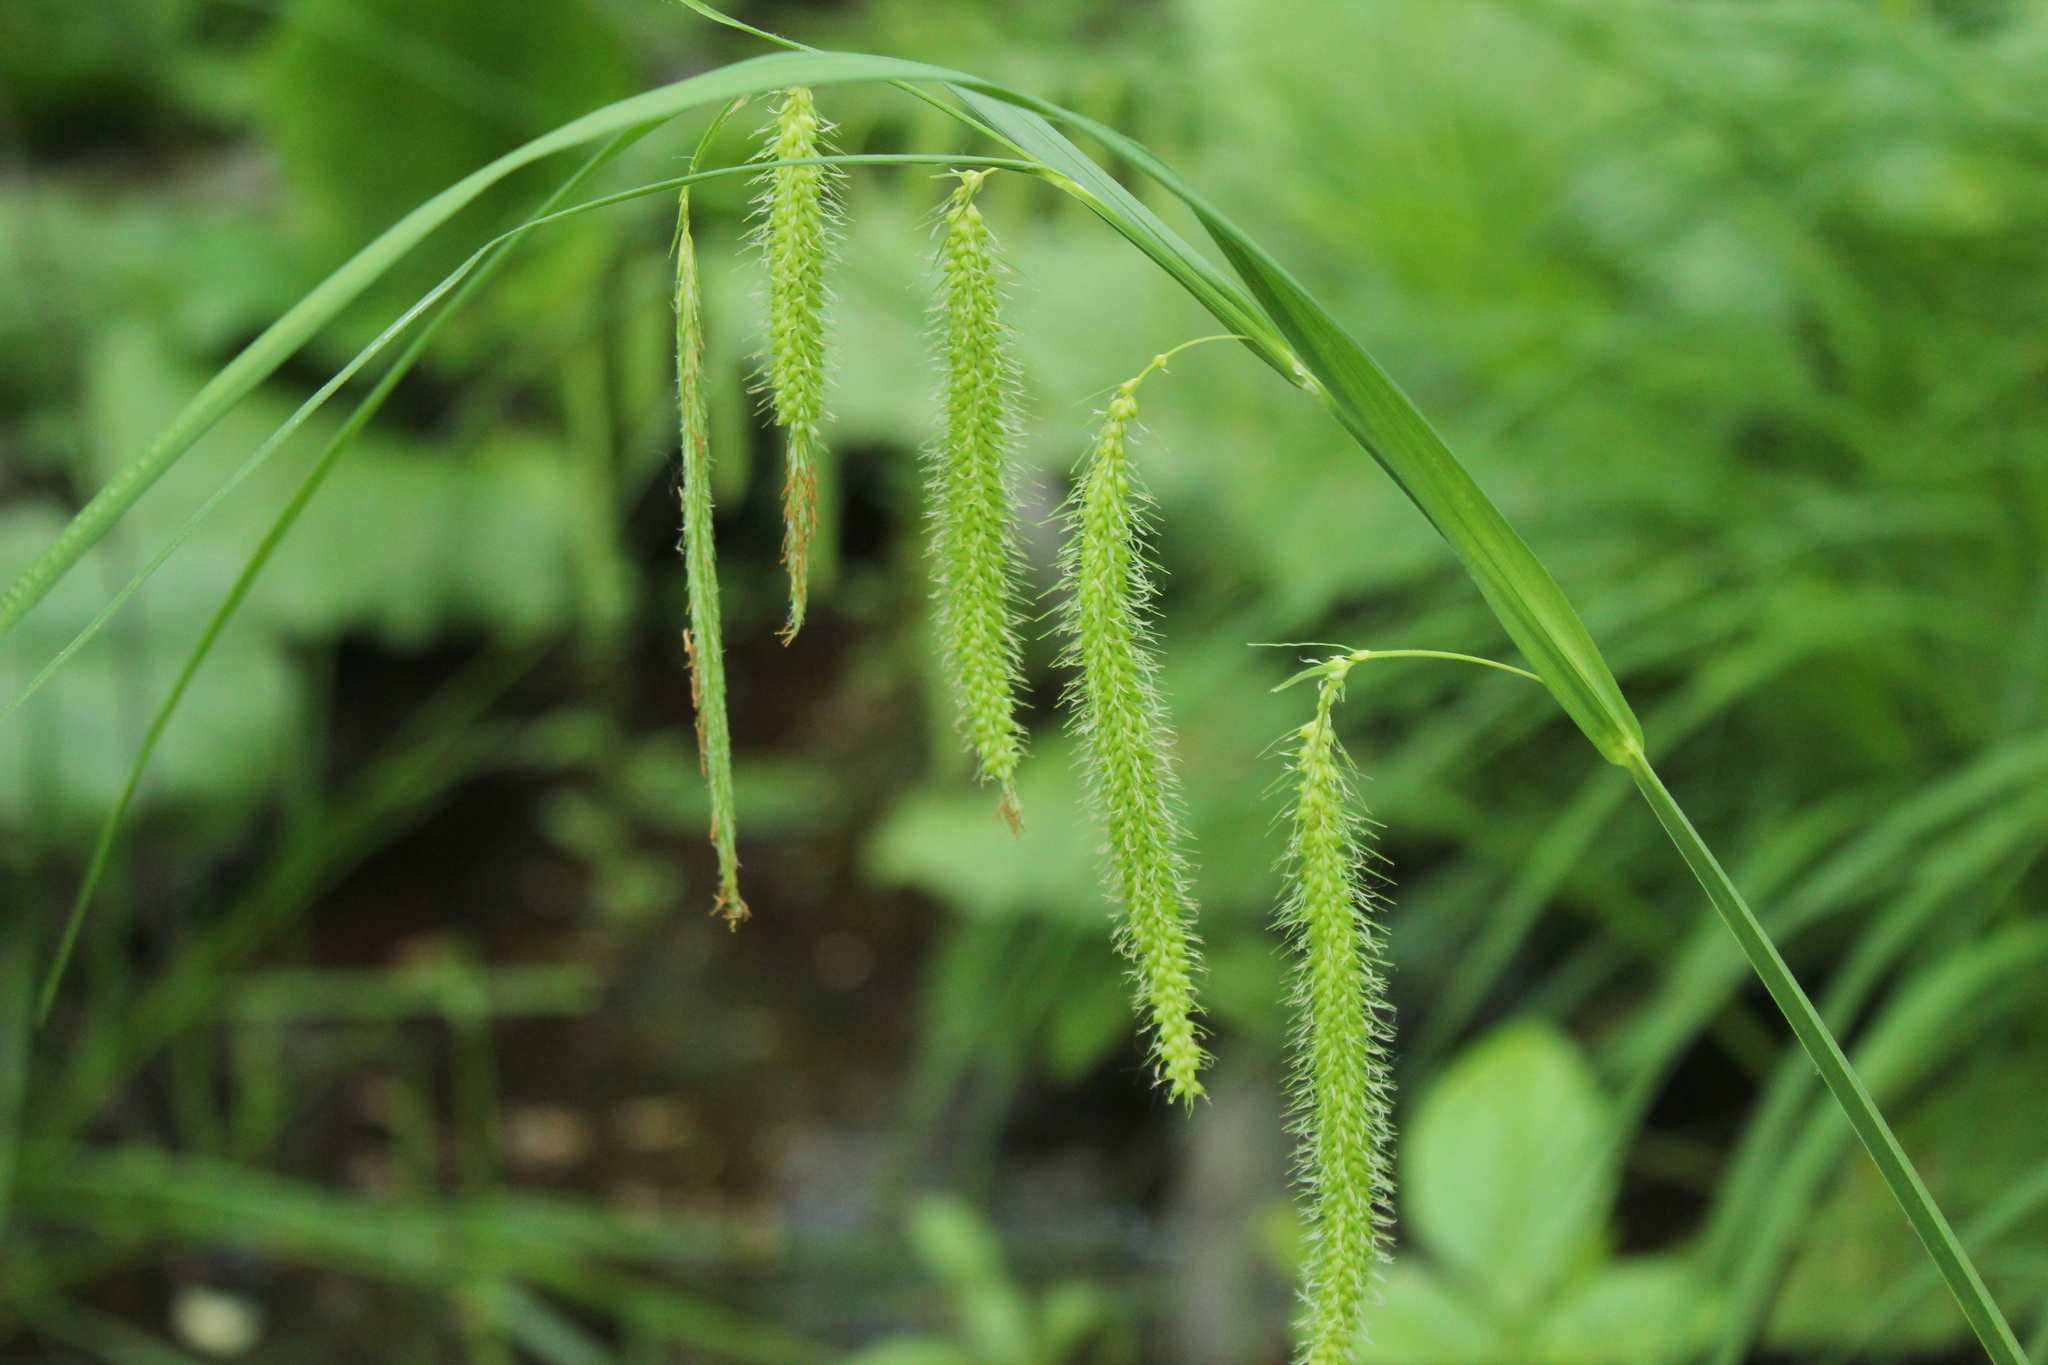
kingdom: Plantae
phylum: Tracheophyta
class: Liliopsida
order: Poales
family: Cyperaceae
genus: Carex
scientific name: Carex crinita
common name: Fringed sedge
